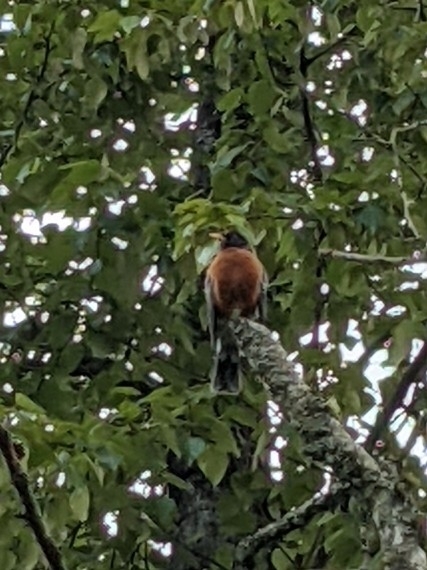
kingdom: Animalia
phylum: Chordata
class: Aves
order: Passeriformes
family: Turdidae
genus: Turdus
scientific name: Turdus migratorius
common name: American robin
